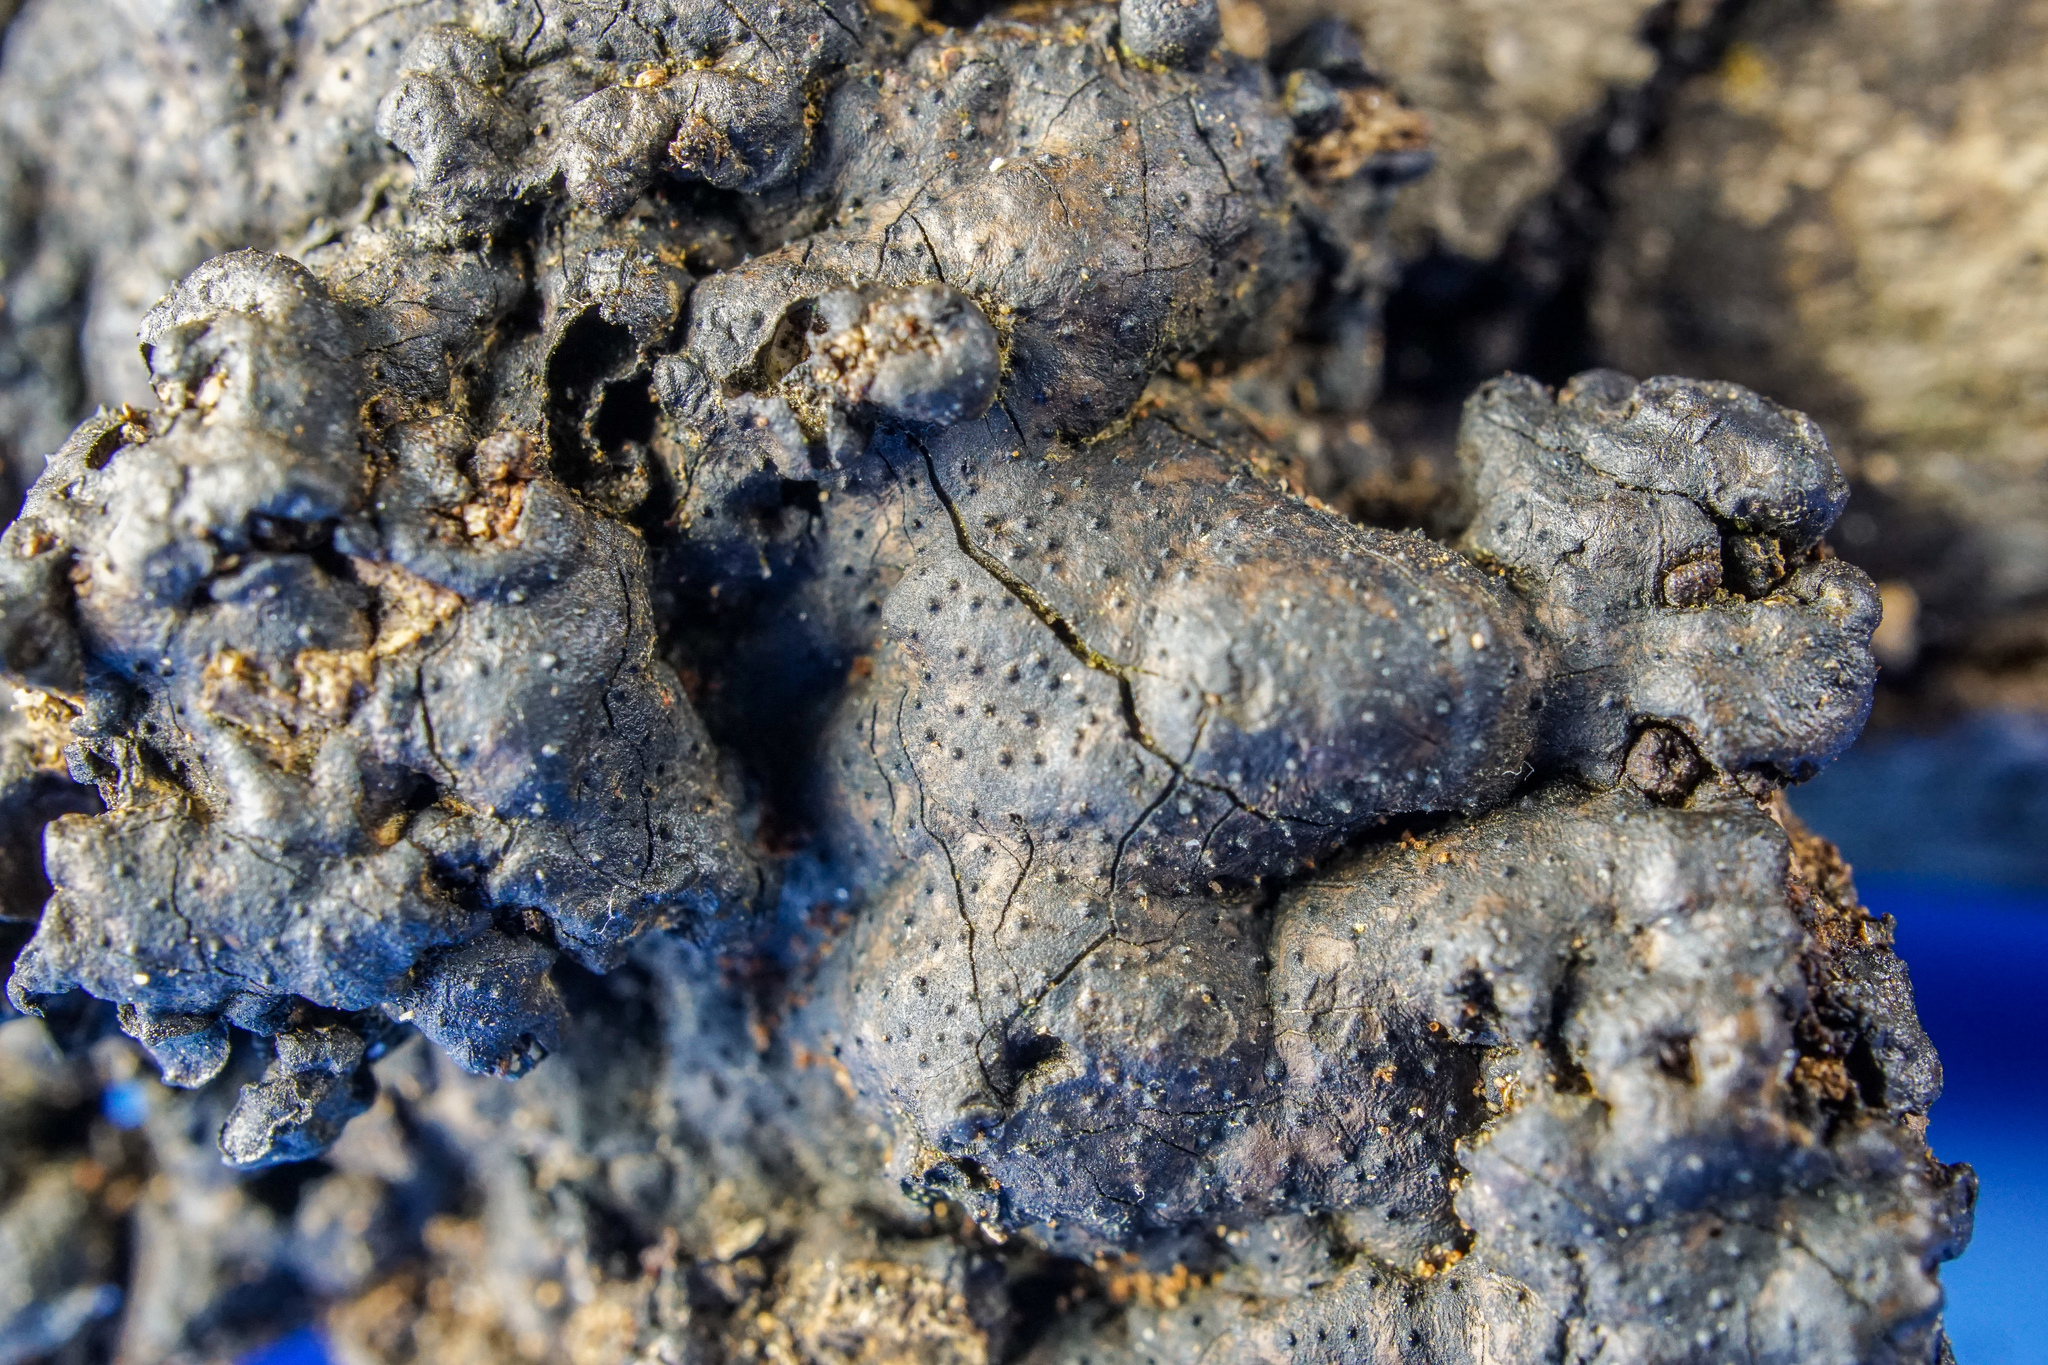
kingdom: Fungi
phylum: Ascomycota
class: Sordariomycetes
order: Xylariales
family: Xylariaceae
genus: Kretzschmaria
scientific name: Kretzschmaria deusta
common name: Brittle cinder
